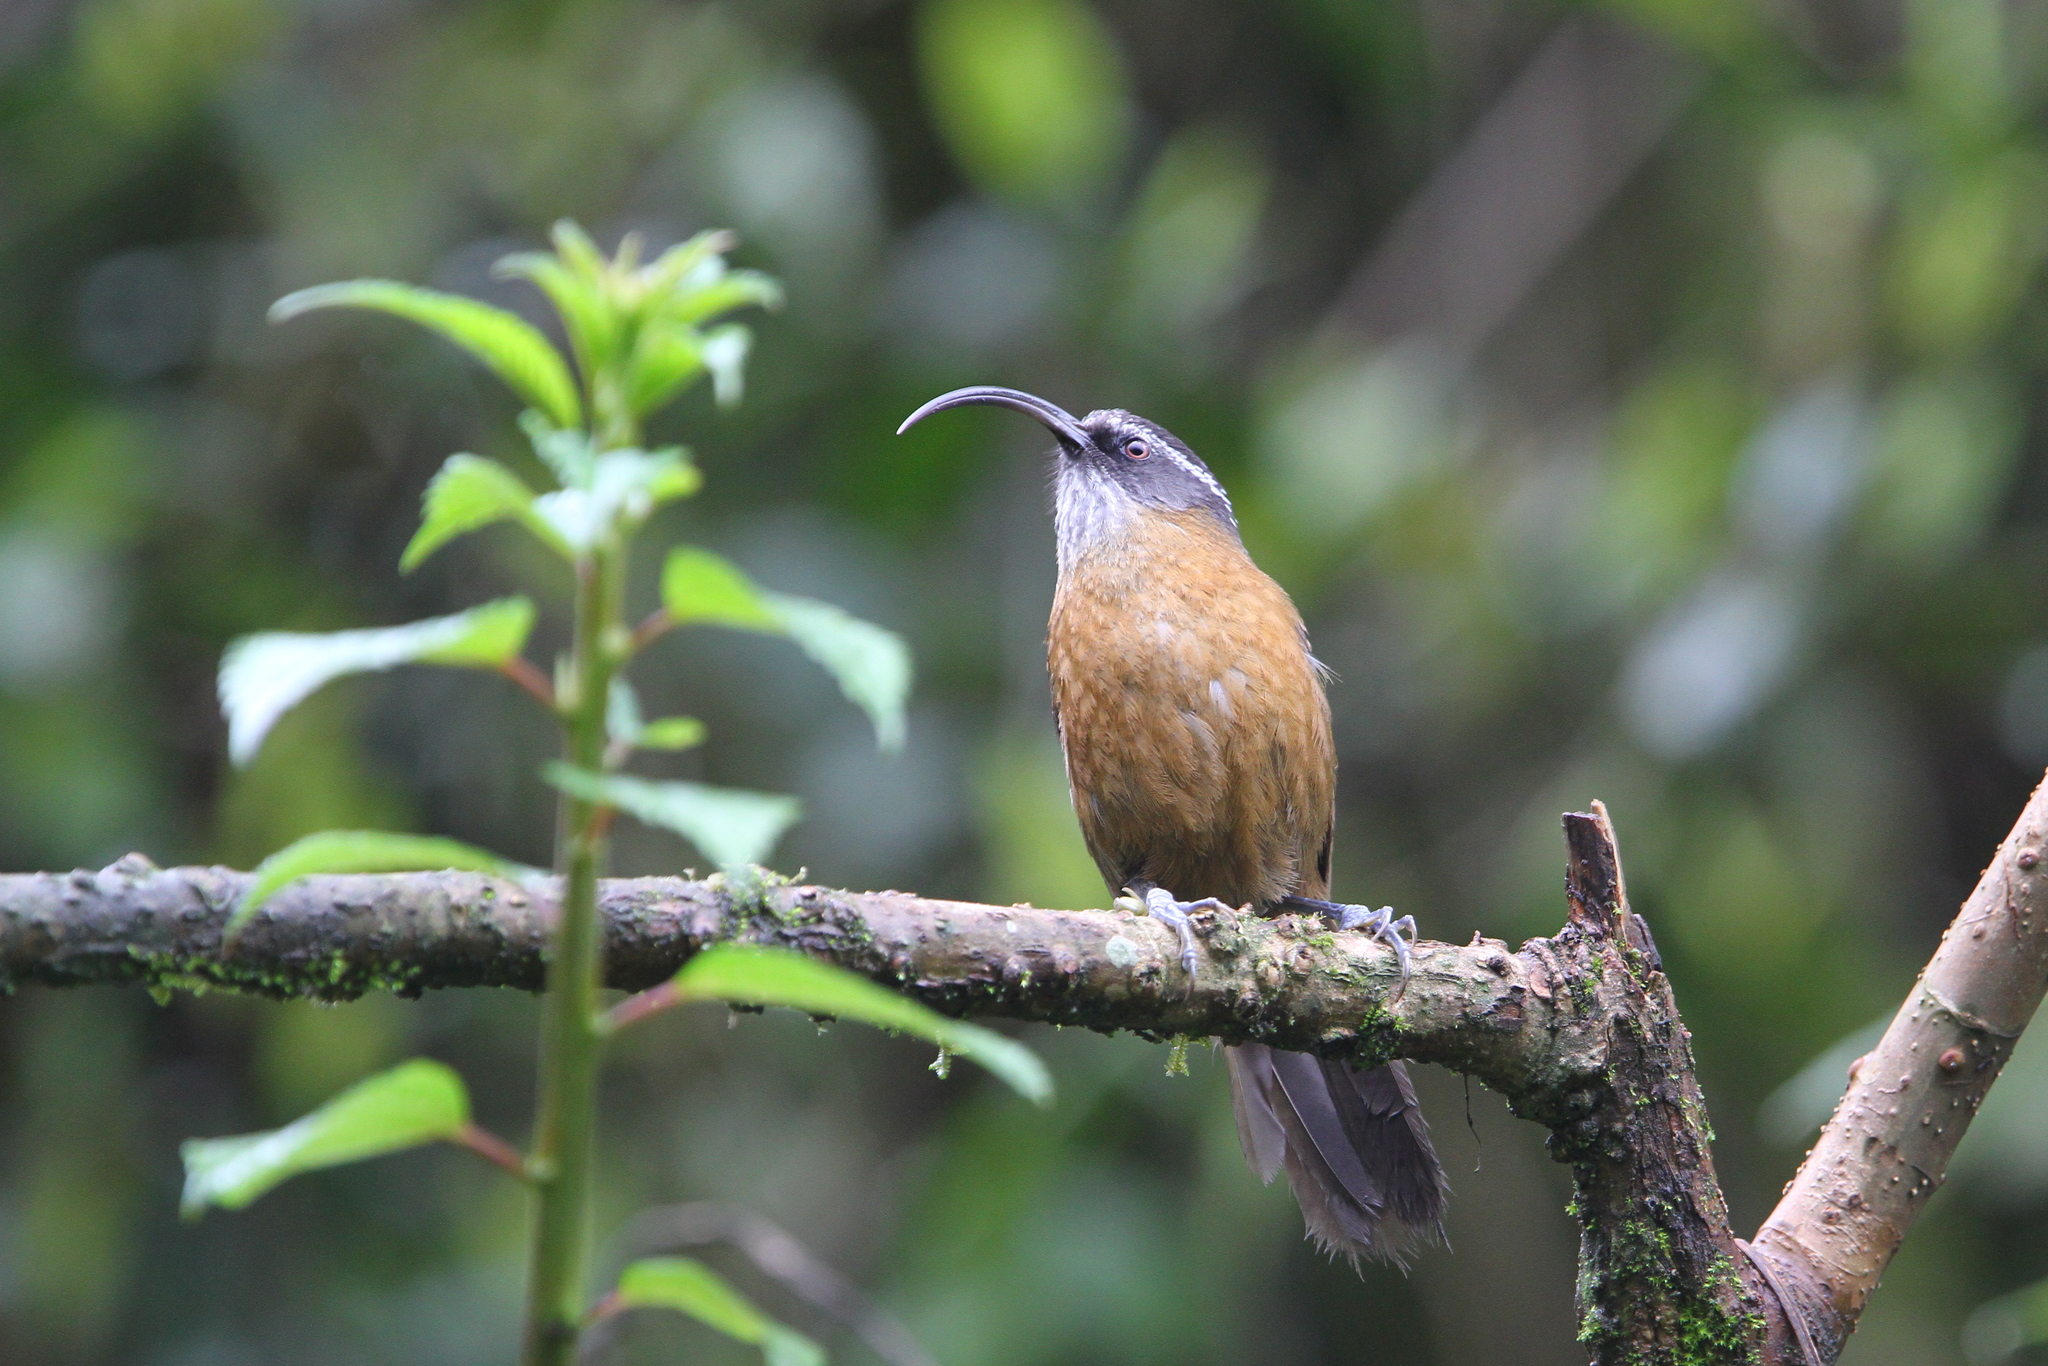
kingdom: Animalia
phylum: Chordata
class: Aves
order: Passeriformes
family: Timaliidae
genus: Pomatorhinus
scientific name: Pomatorhinus superciliaris
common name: Slender-billed scimitar-babbler
